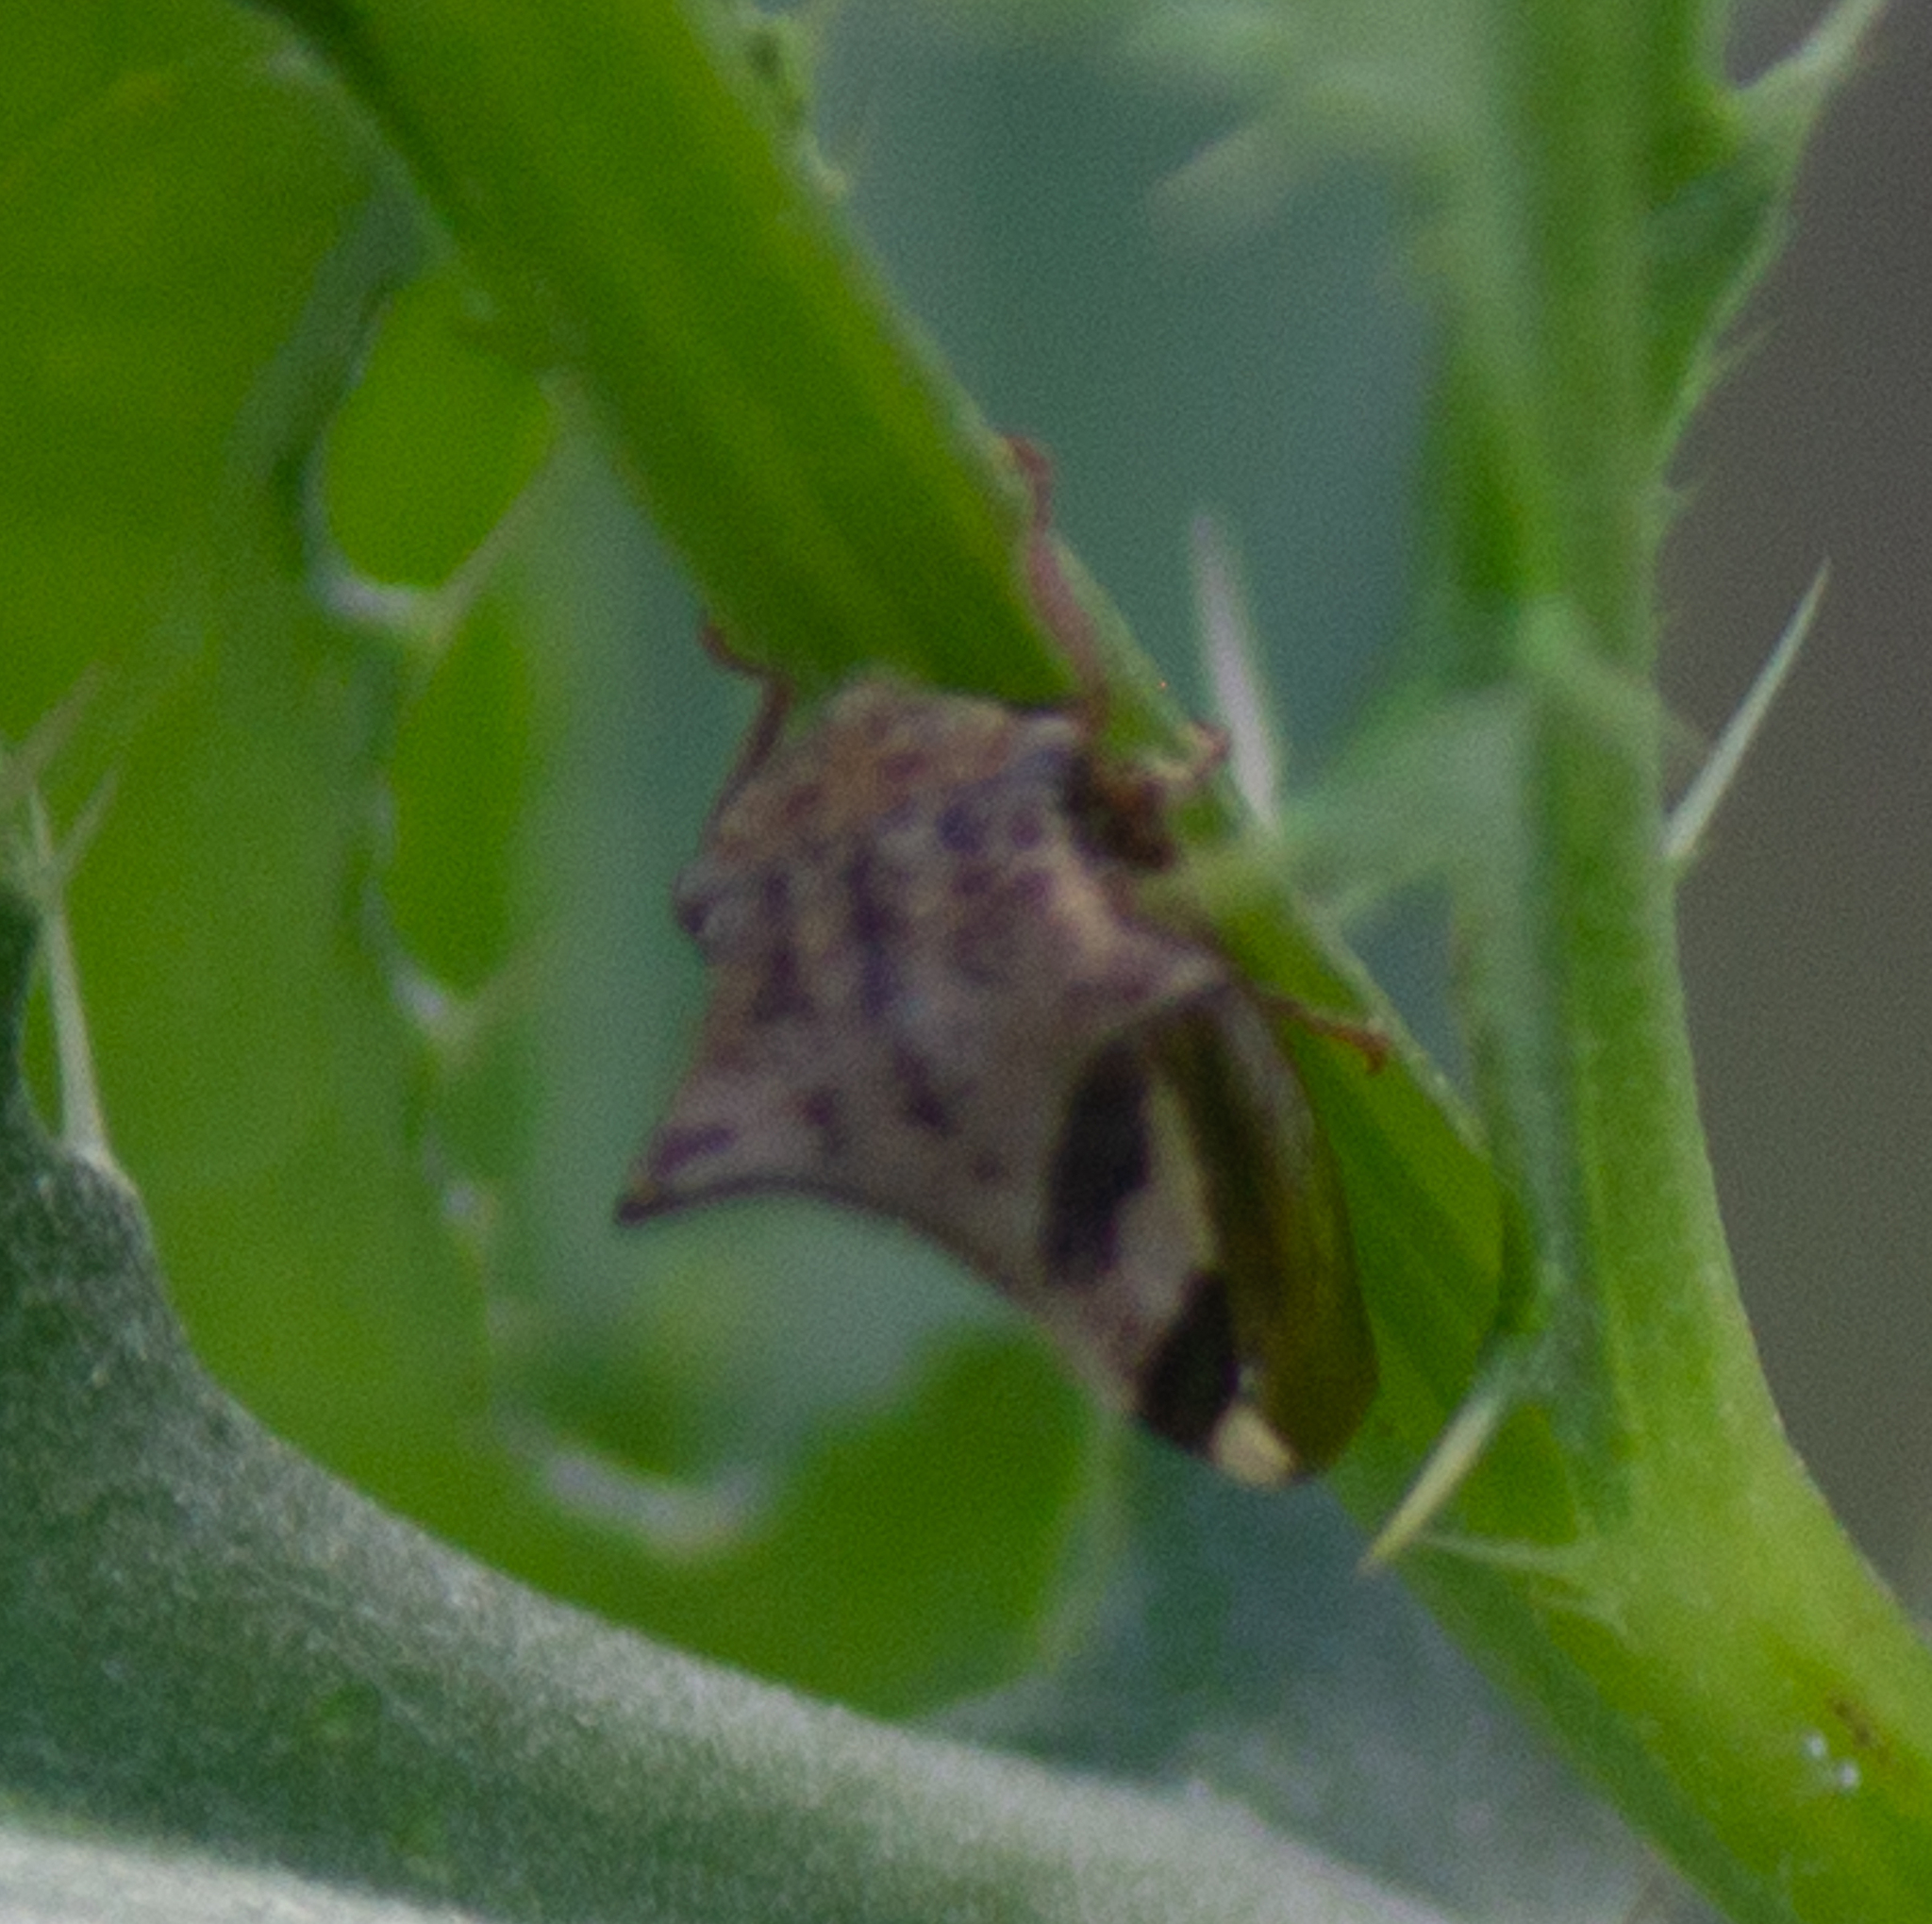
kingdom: Animalia
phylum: Arthropoda
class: Insecta
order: Hemiptera
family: Membracidae
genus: Stictocephala
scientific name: Stictocephala diceros
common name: Two-horned treehopper
